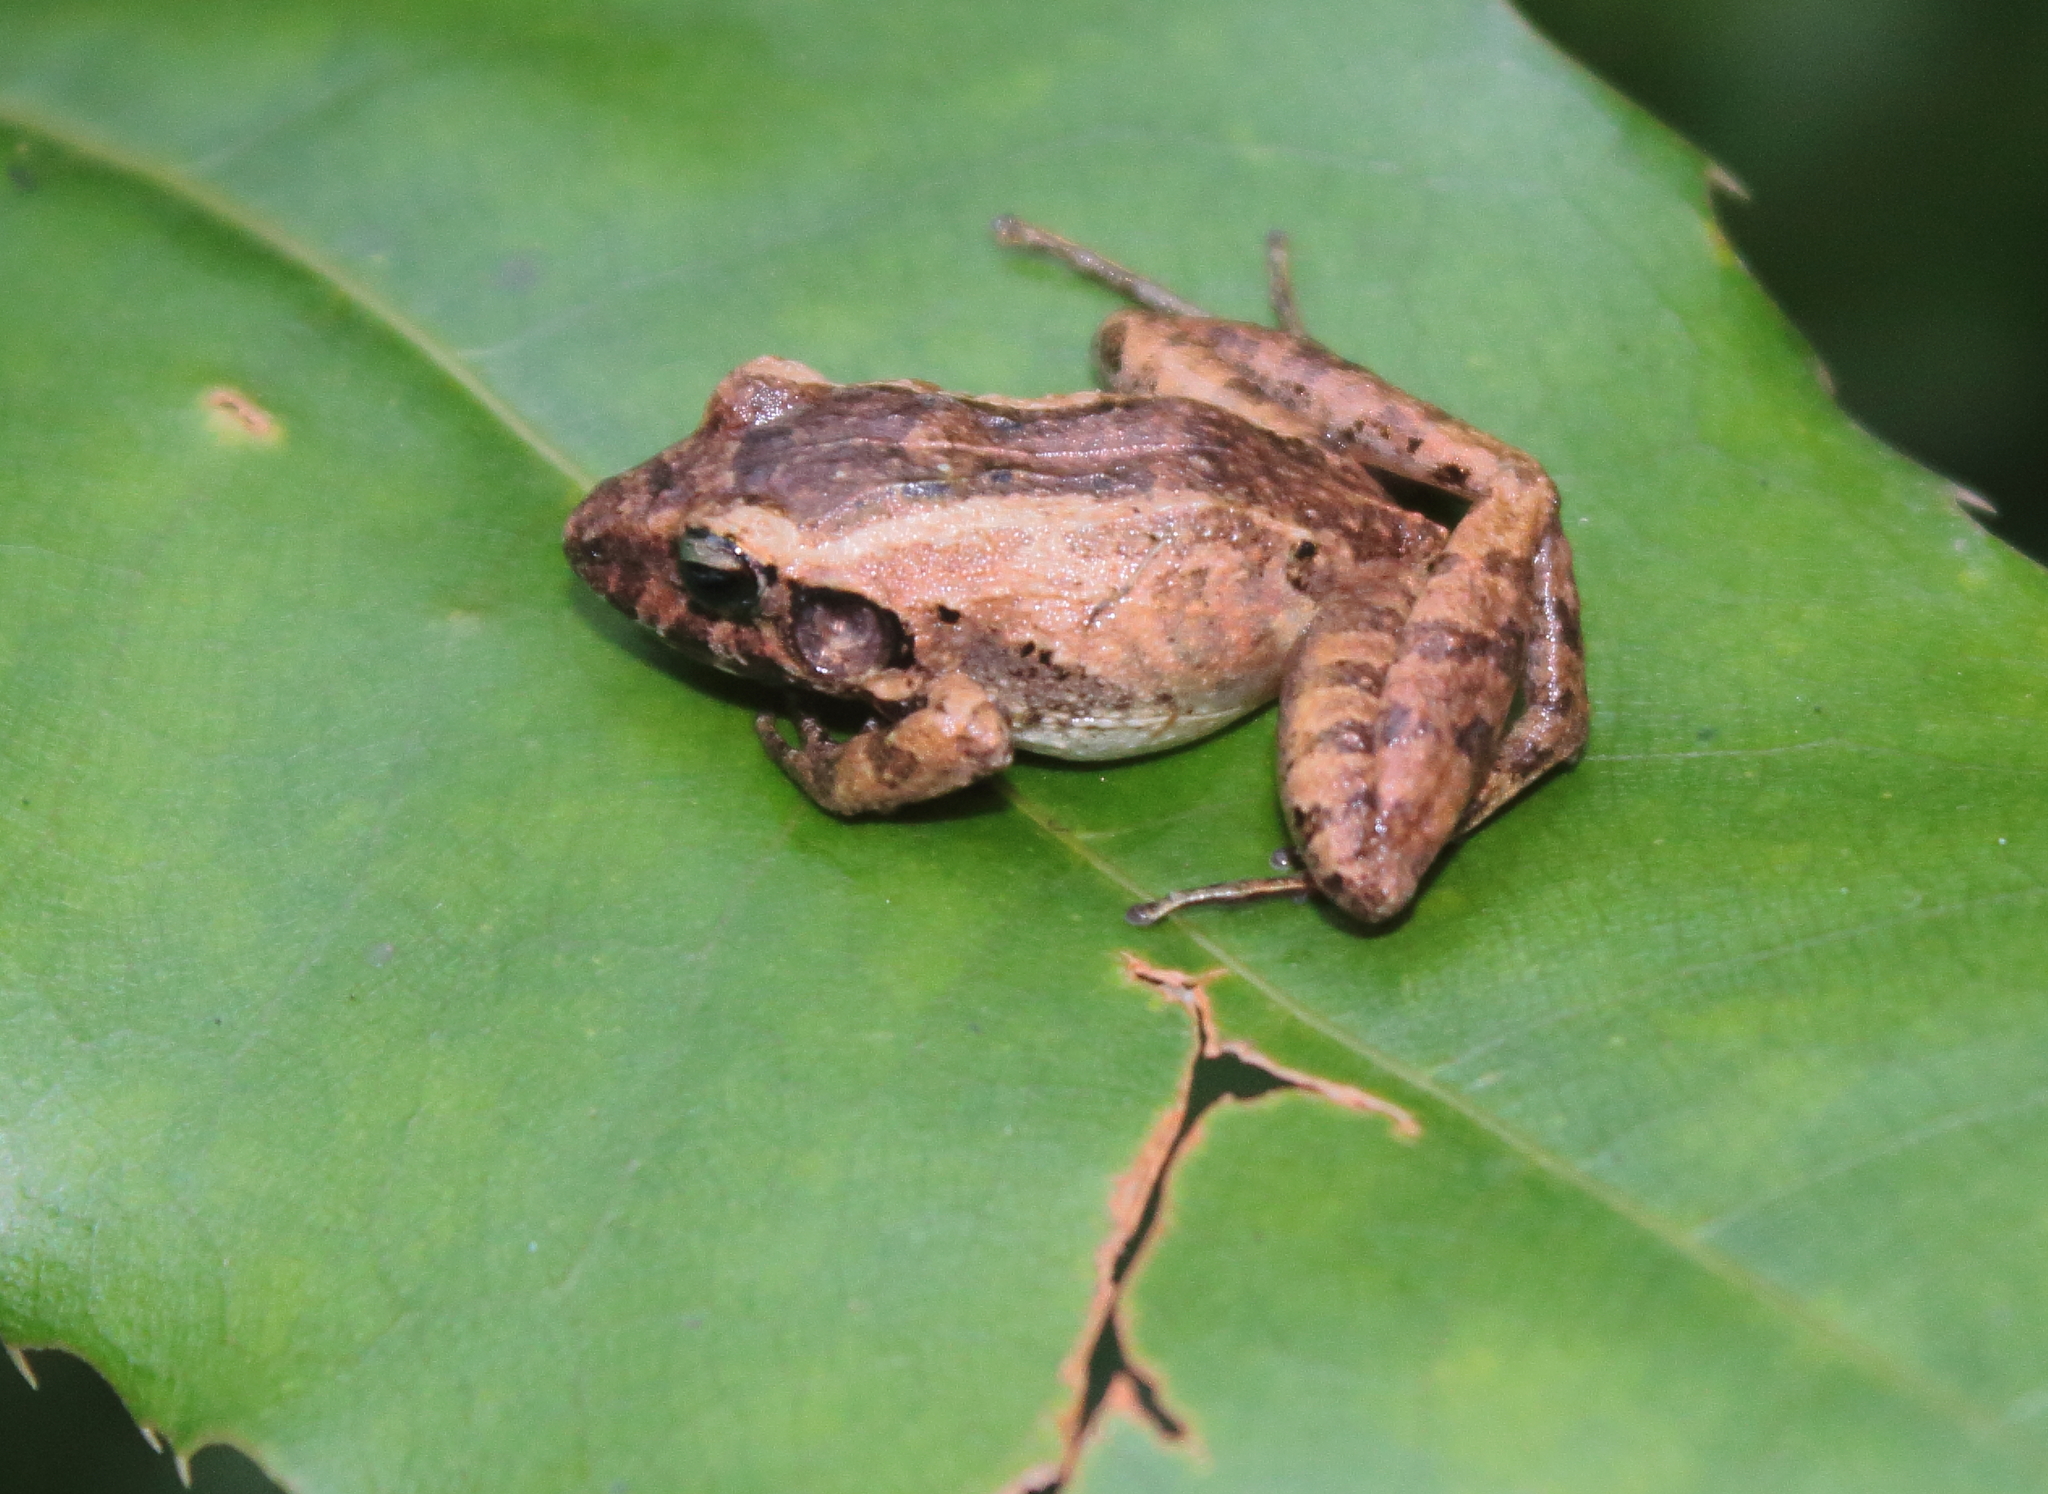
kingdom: Animalia
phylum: Chordata
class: Amphibia
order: Anura
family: Craugastoridae
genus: Craugastor
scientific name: Craugastor berkenbuschii
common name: Berkenbusch's robber frog
